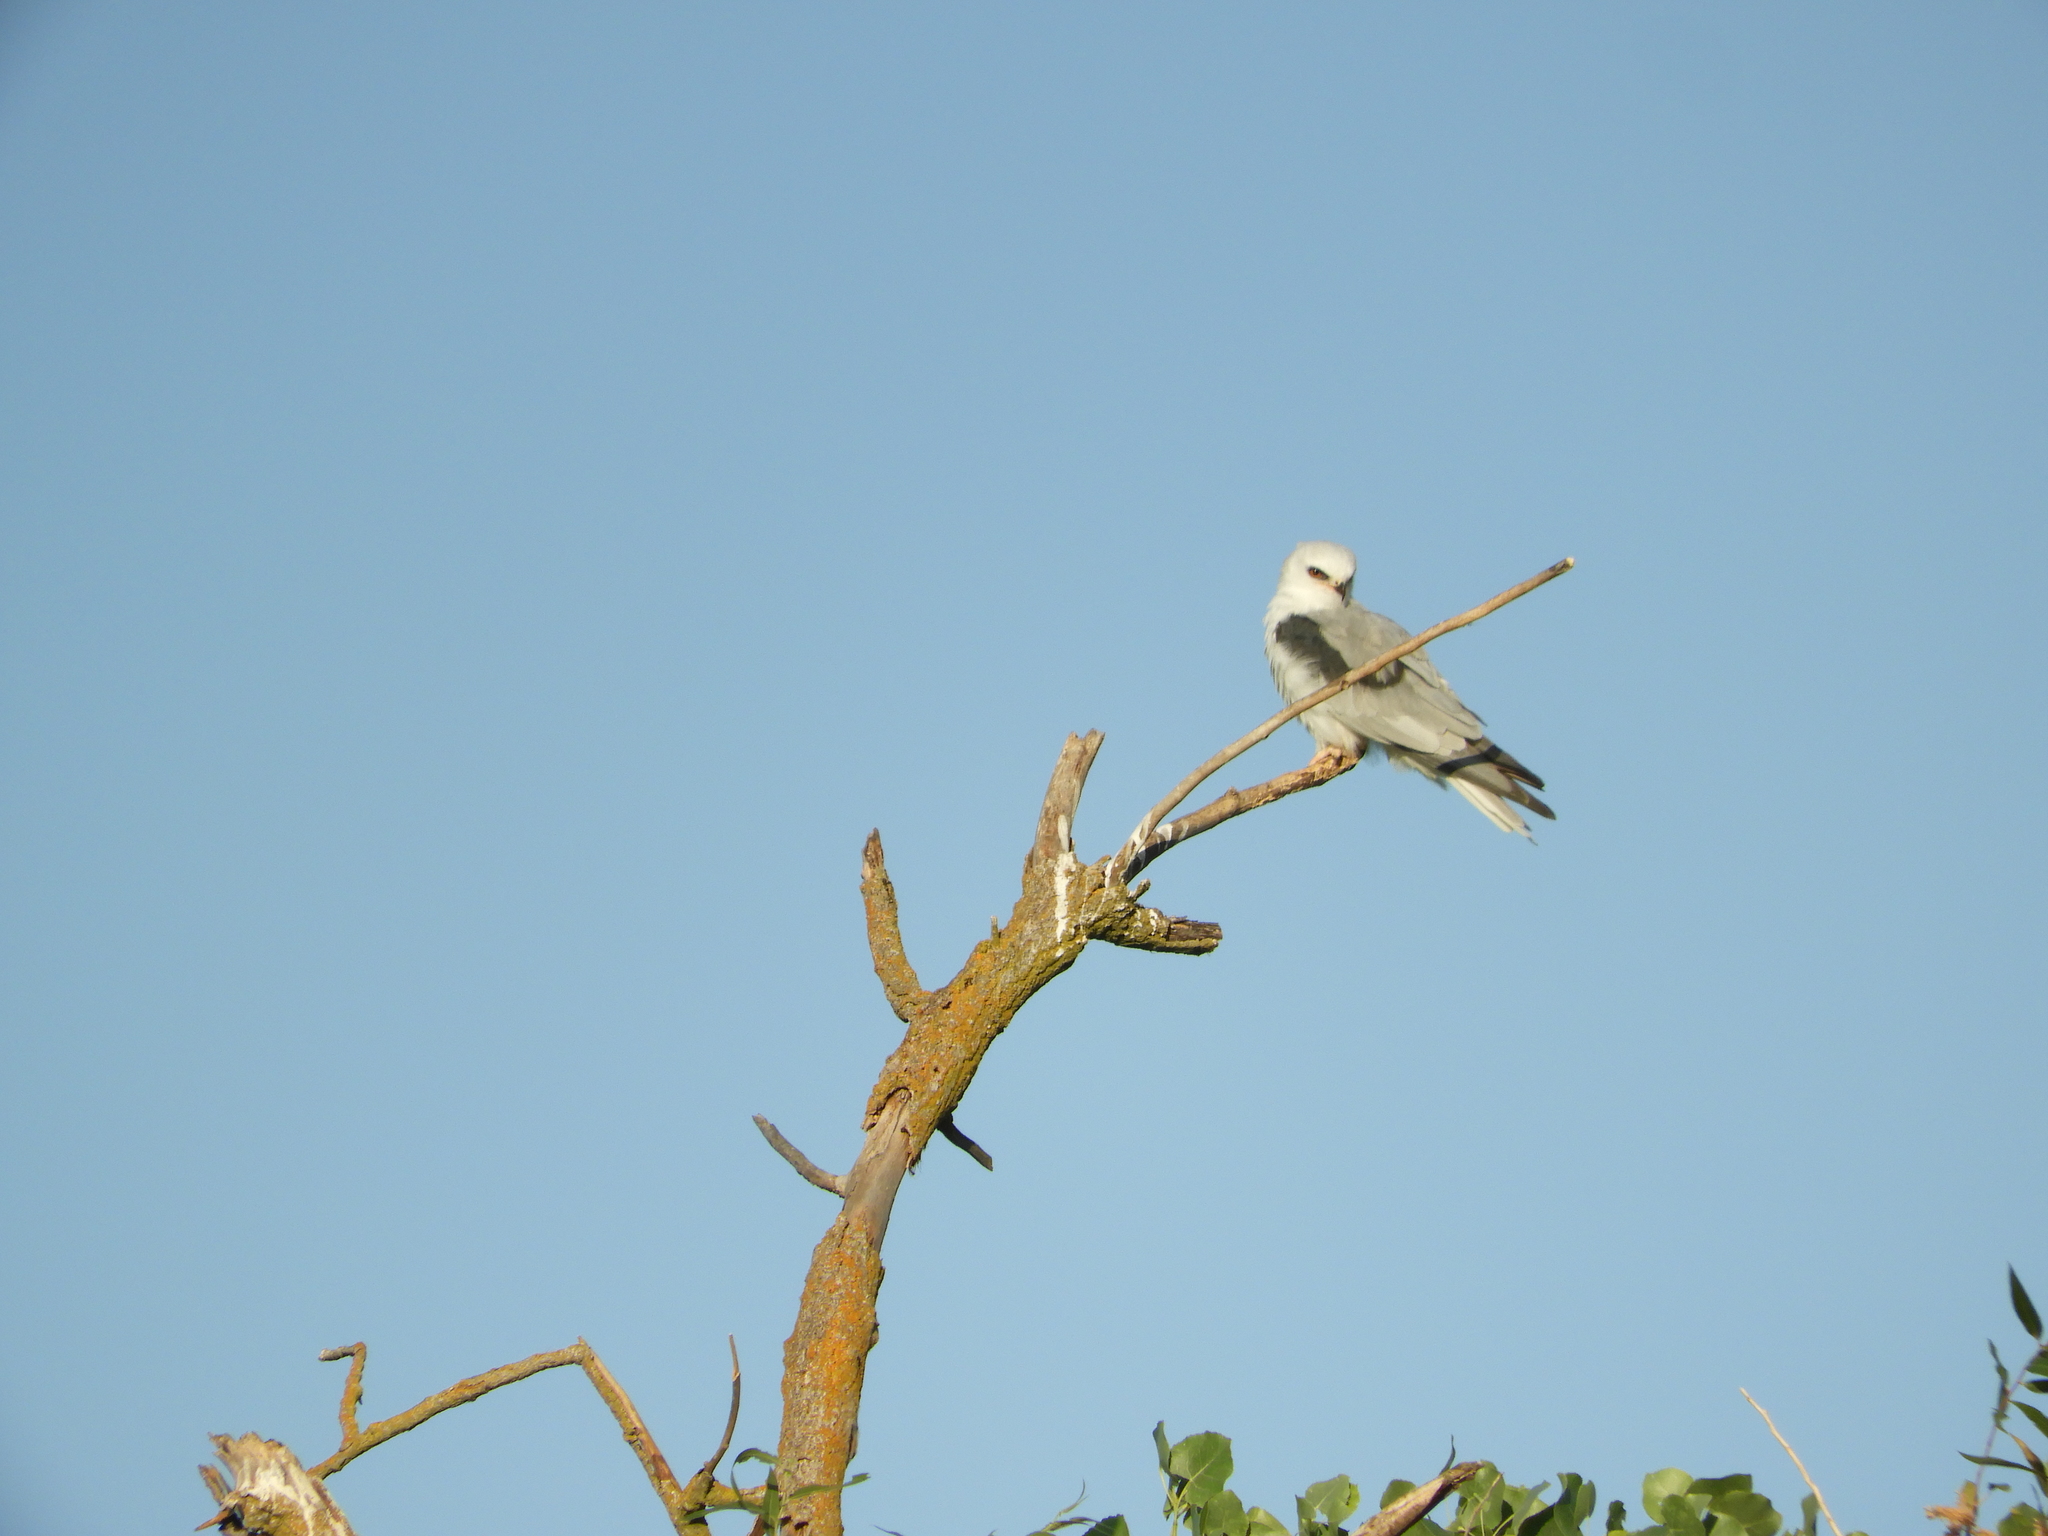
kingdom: Animalia
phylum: Chordata
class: Aves
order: Accipitriformes
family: Accipitridae
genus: Elanus
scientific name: Elanus leucurus
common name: White-tailed kite
